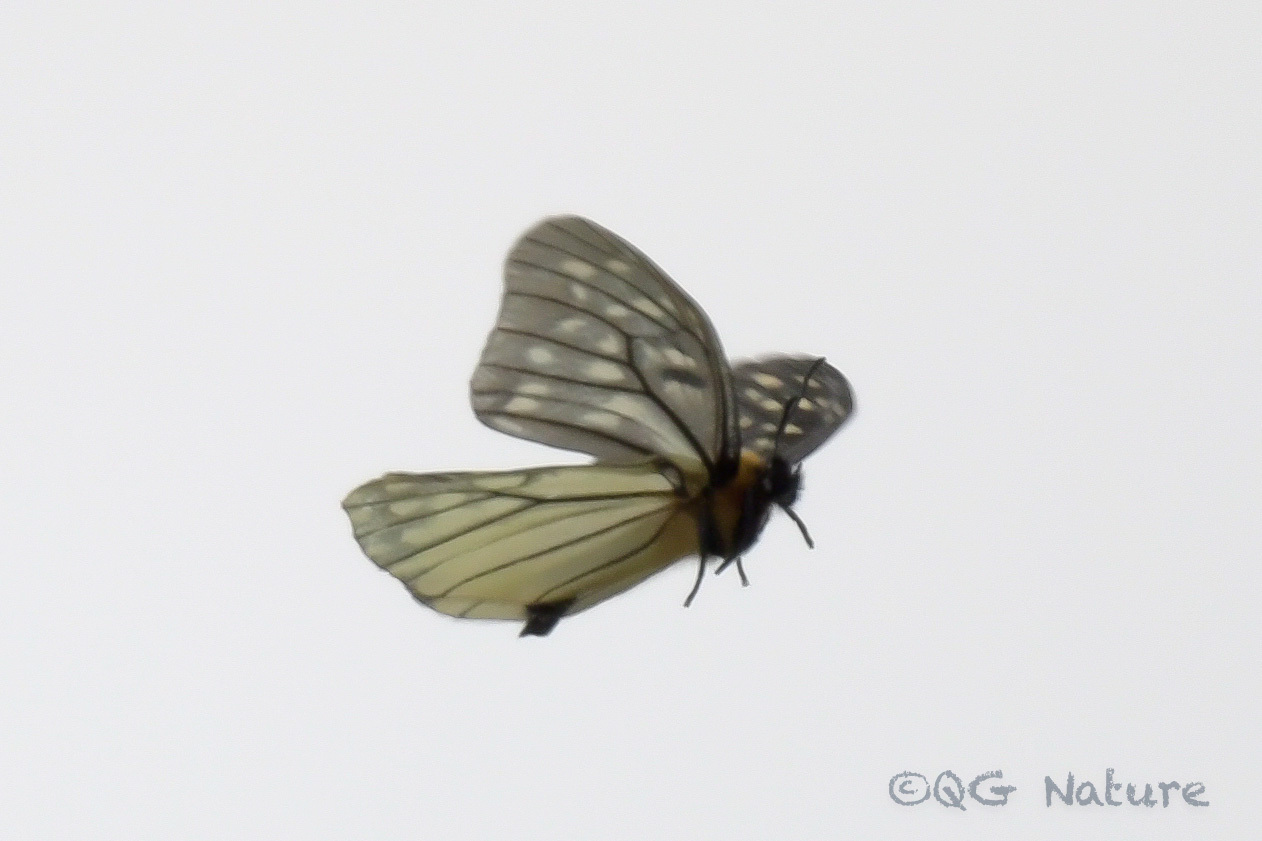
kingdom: Animalia
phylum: Arthropoda
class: Insecta
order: Lepidoptera
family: Nymphalidae
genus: Calinaga
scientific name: Calinaga lhatso
